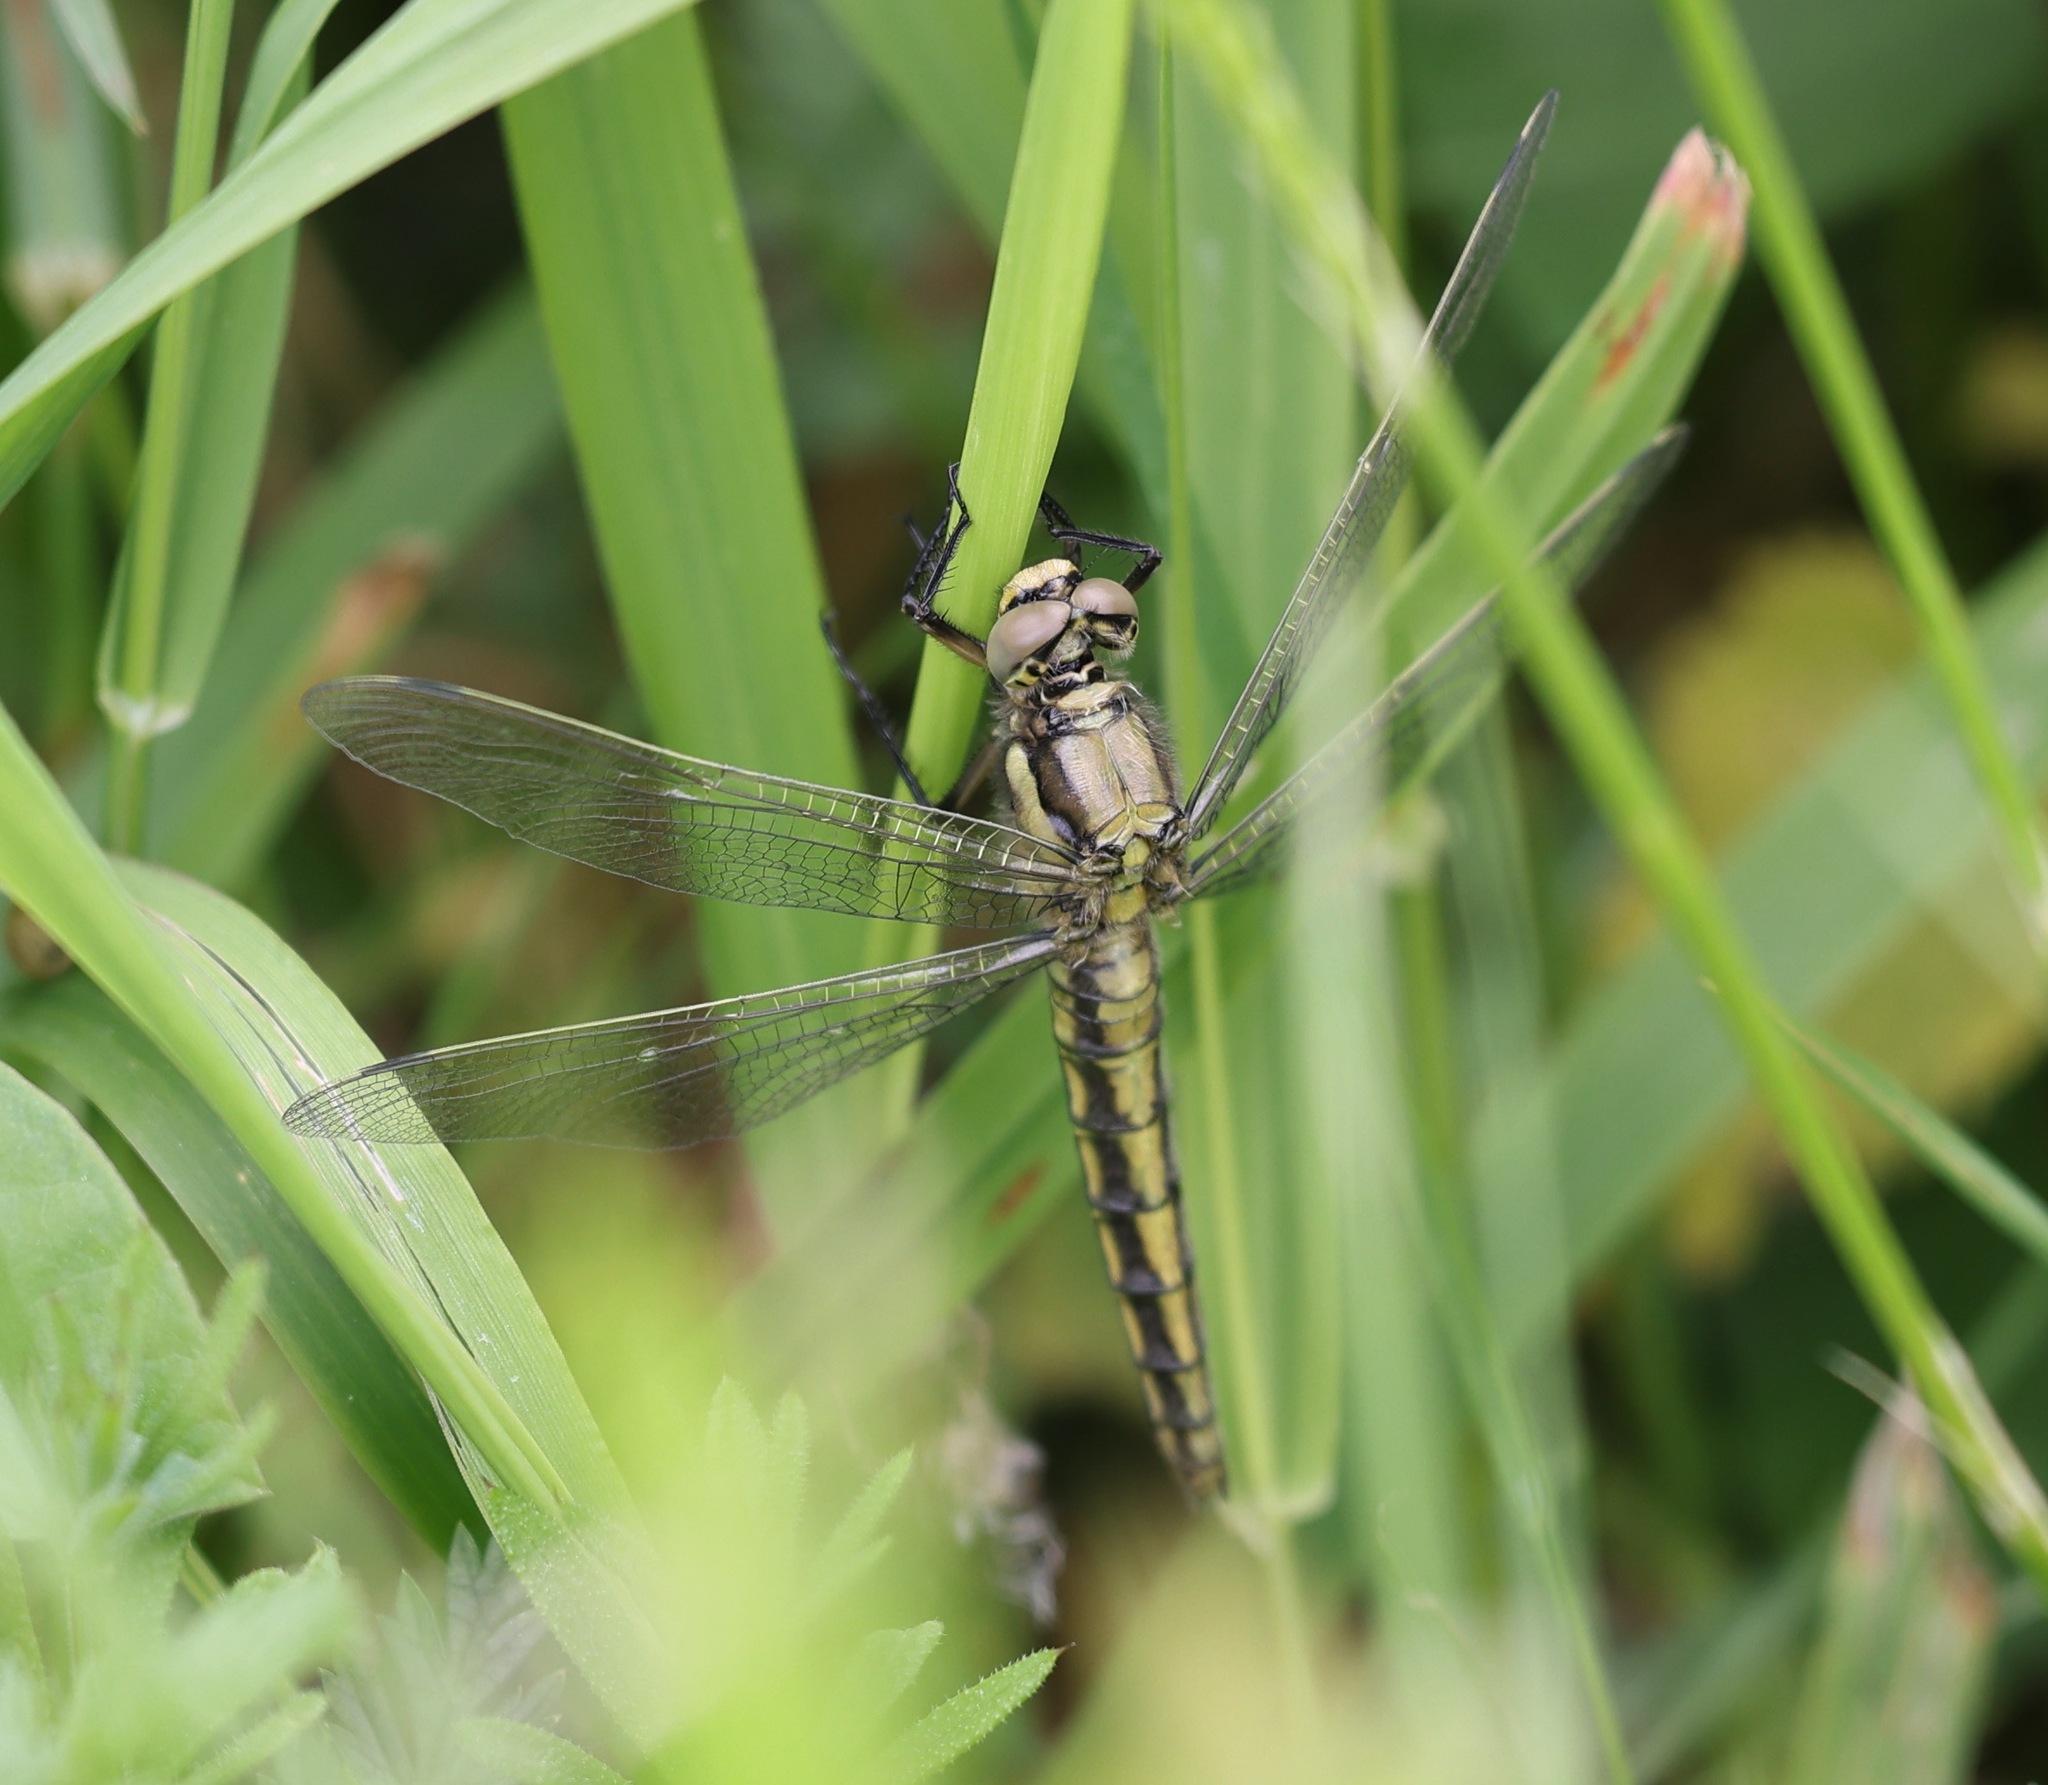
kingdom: Animalia
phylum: Arthropoda
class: Insecta
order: Odonata
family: Libellulidae
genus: Orthetrum
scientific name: Orthetrum cancellatum
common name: Black-tailed skimmer
